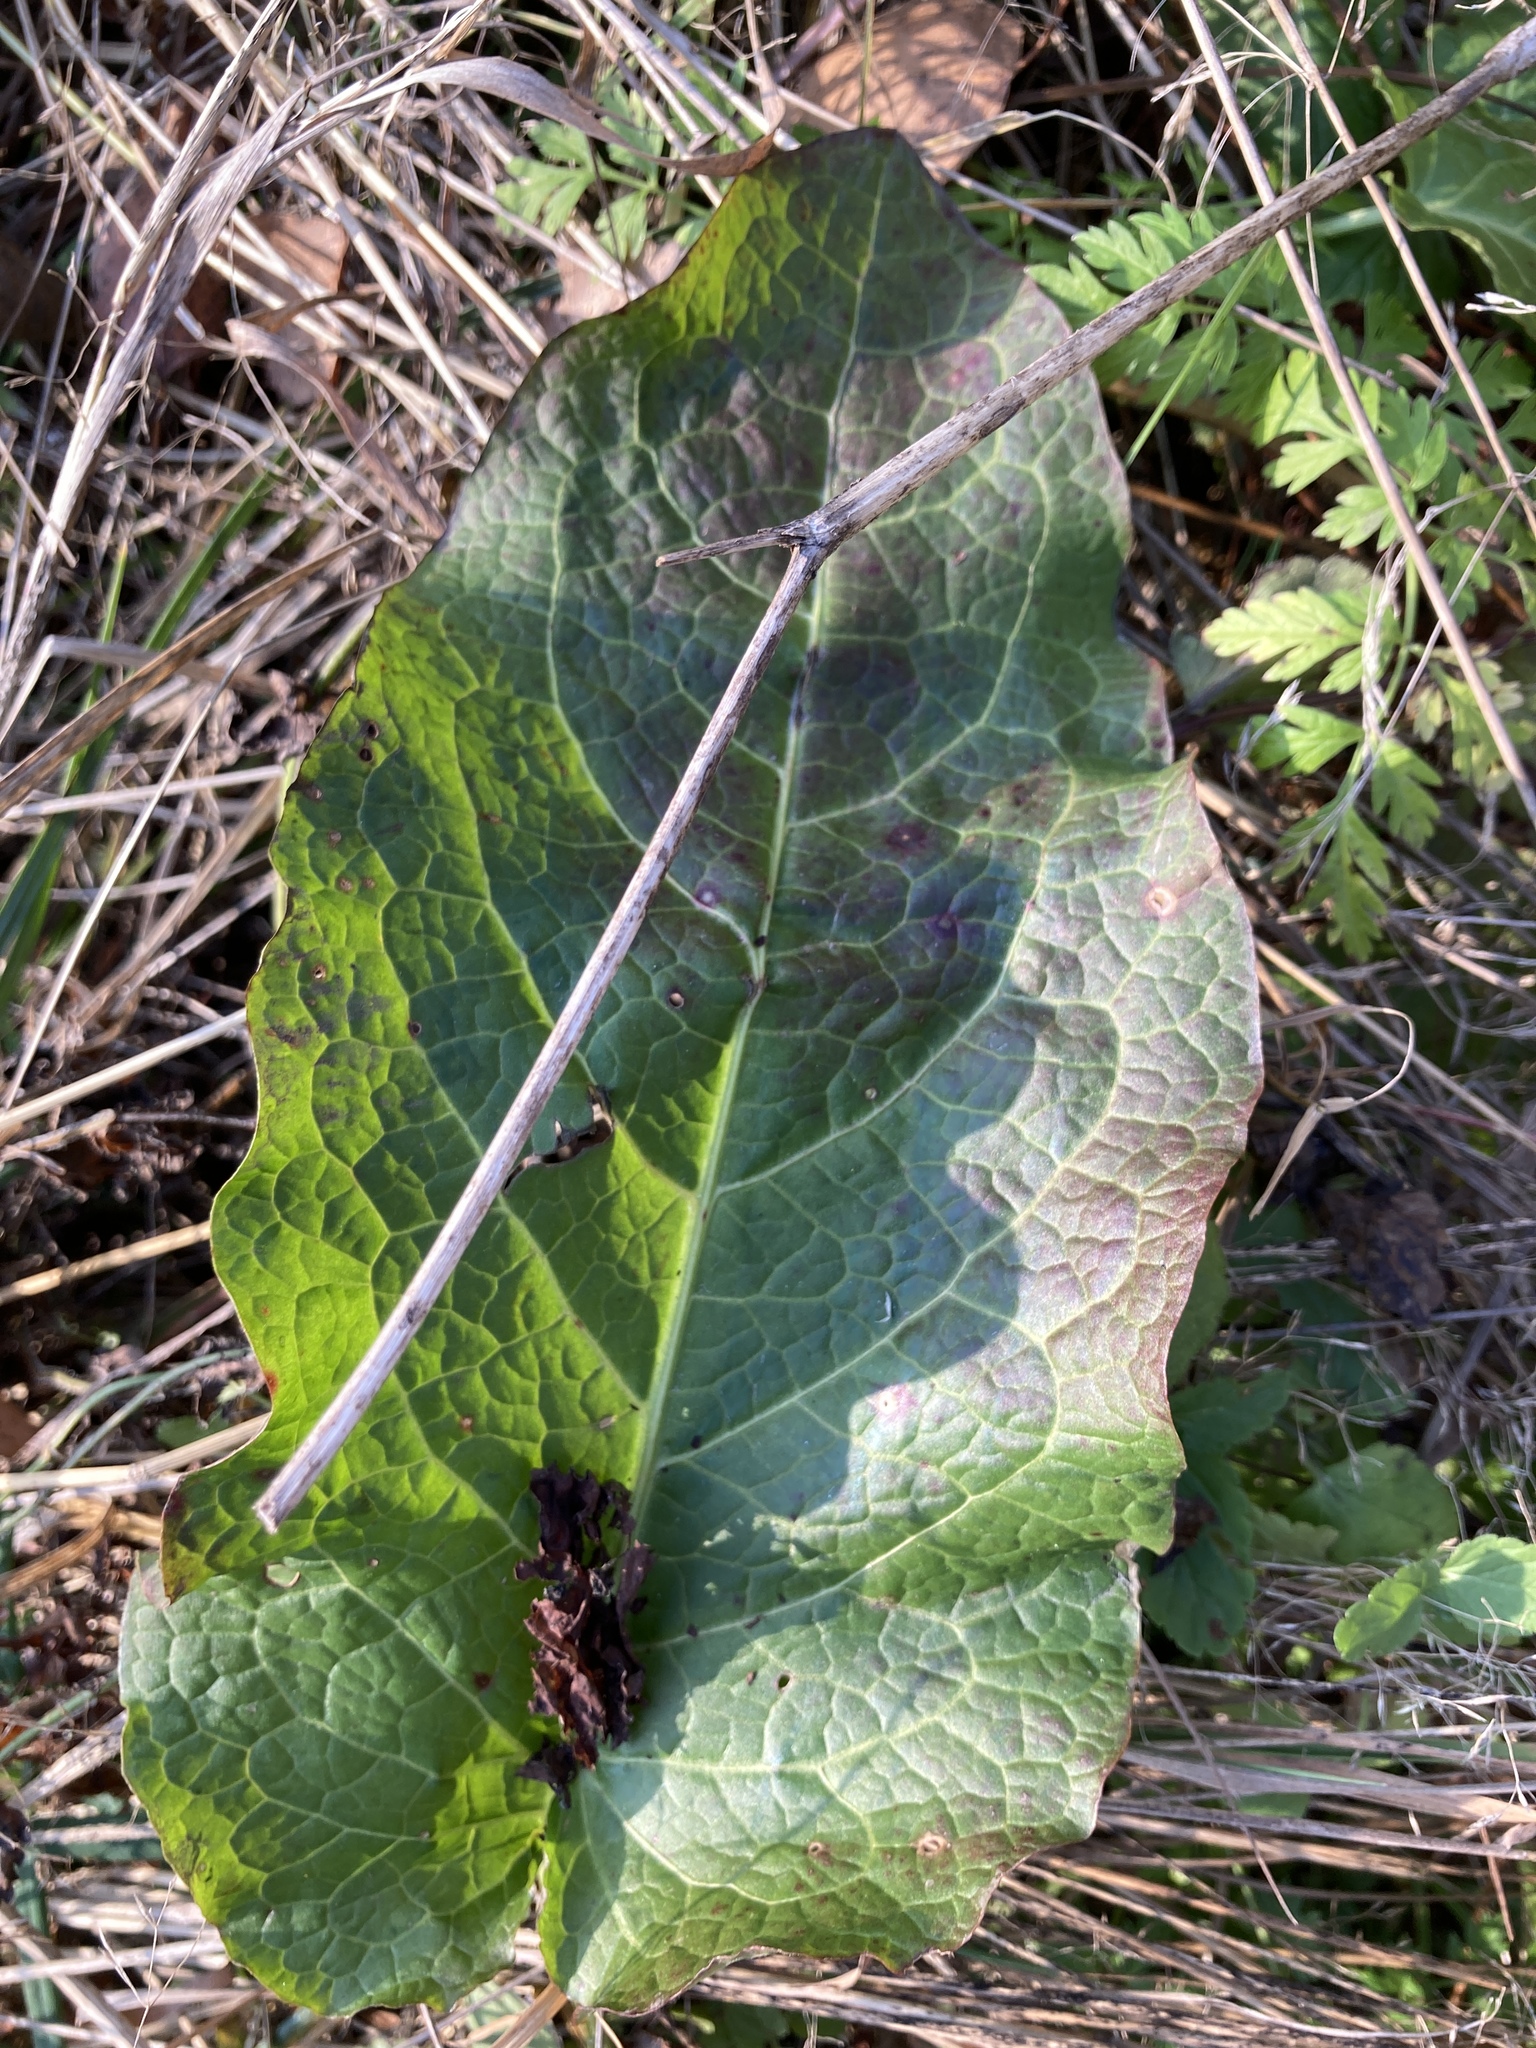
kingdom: Plantae
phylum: Tracheophyta
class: Magnoliopsida
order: Caryophyllales
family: Polygonaceae
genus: Rumex
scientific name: Rumex obtusifolius
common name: Bitter dock
